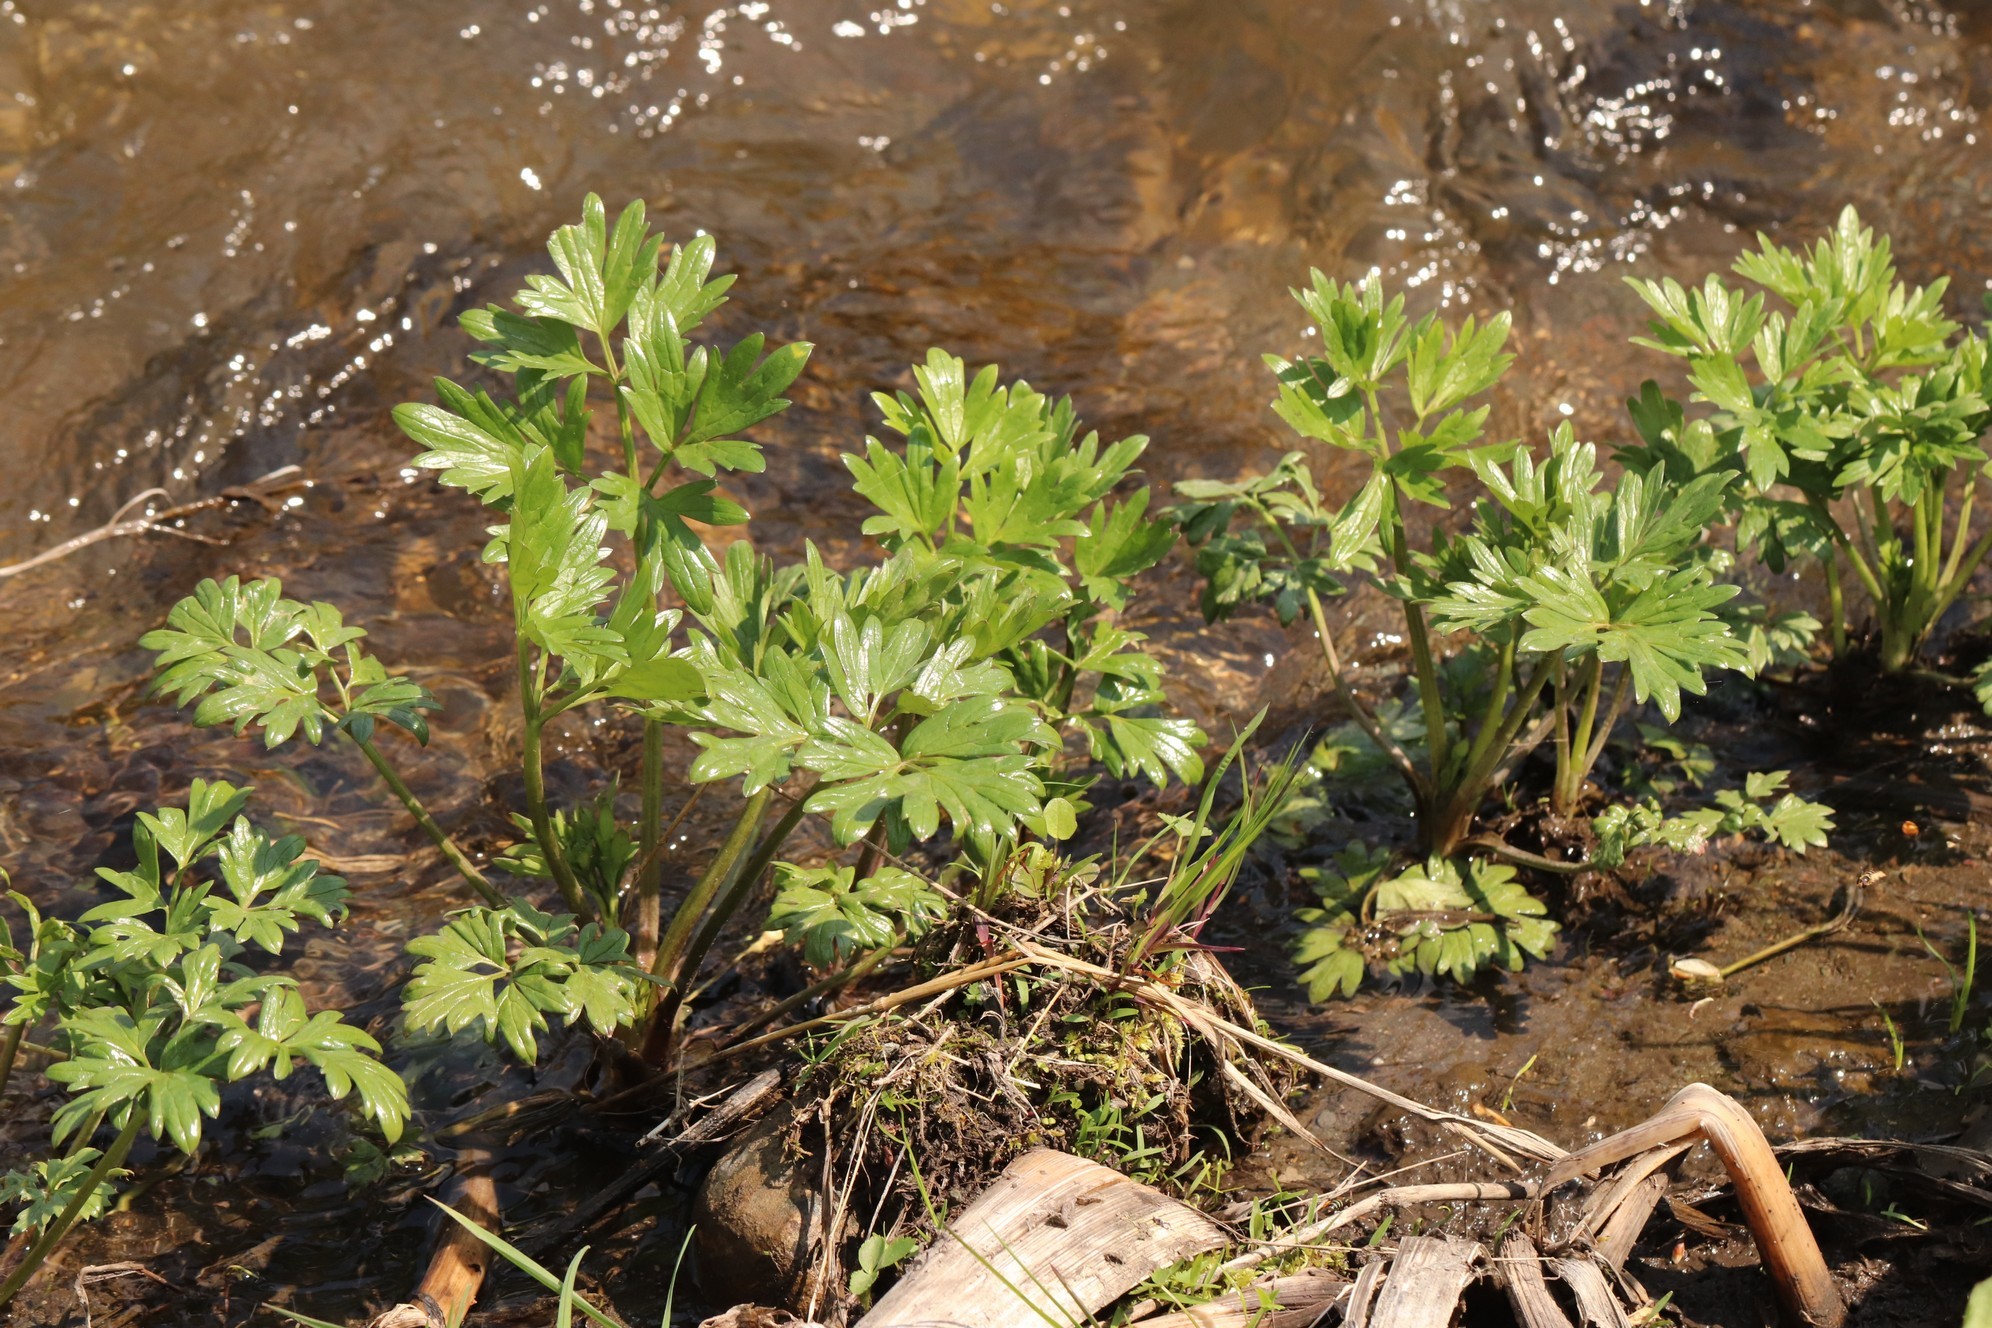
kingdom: Plantae
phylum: Tracheophyta
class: Magnoliopsida
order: Ranunculales
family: Ranunculaceae
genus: Ranunculus
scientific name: Ranunculus repens
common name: Creeping buttercup
